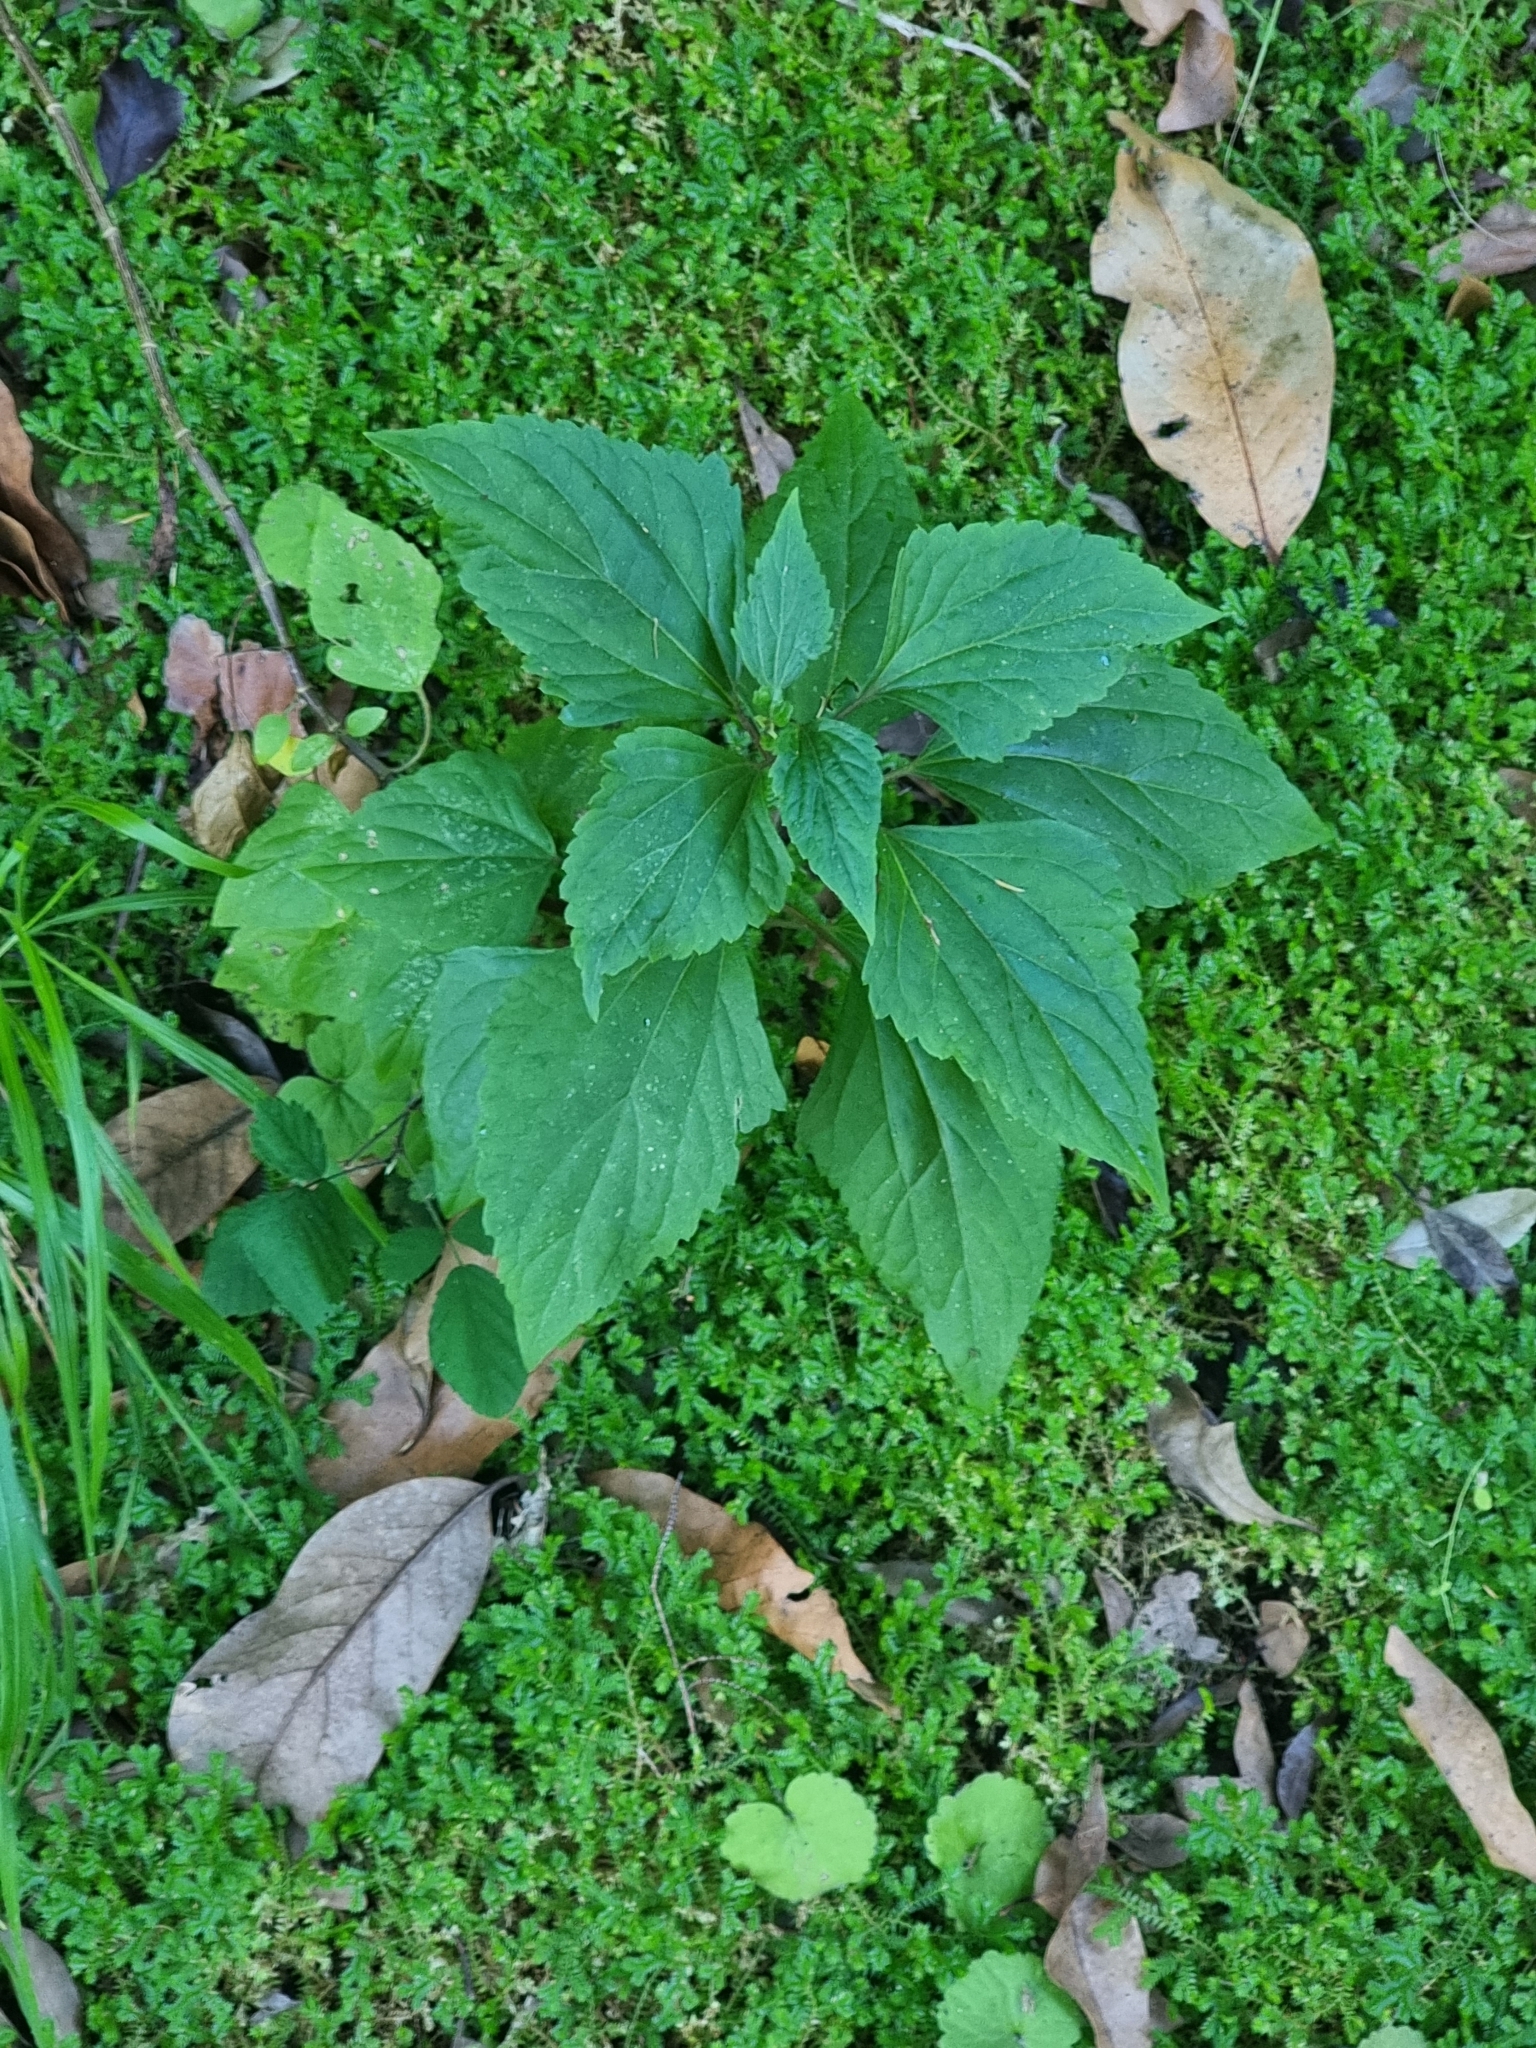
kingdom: Plantae
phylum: Tracheophyta
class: Magnoliopsida
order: Asterales
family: Asteraceae
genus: Ageratina
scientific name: Ageratina adenophora
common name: Sticky snakeroot
